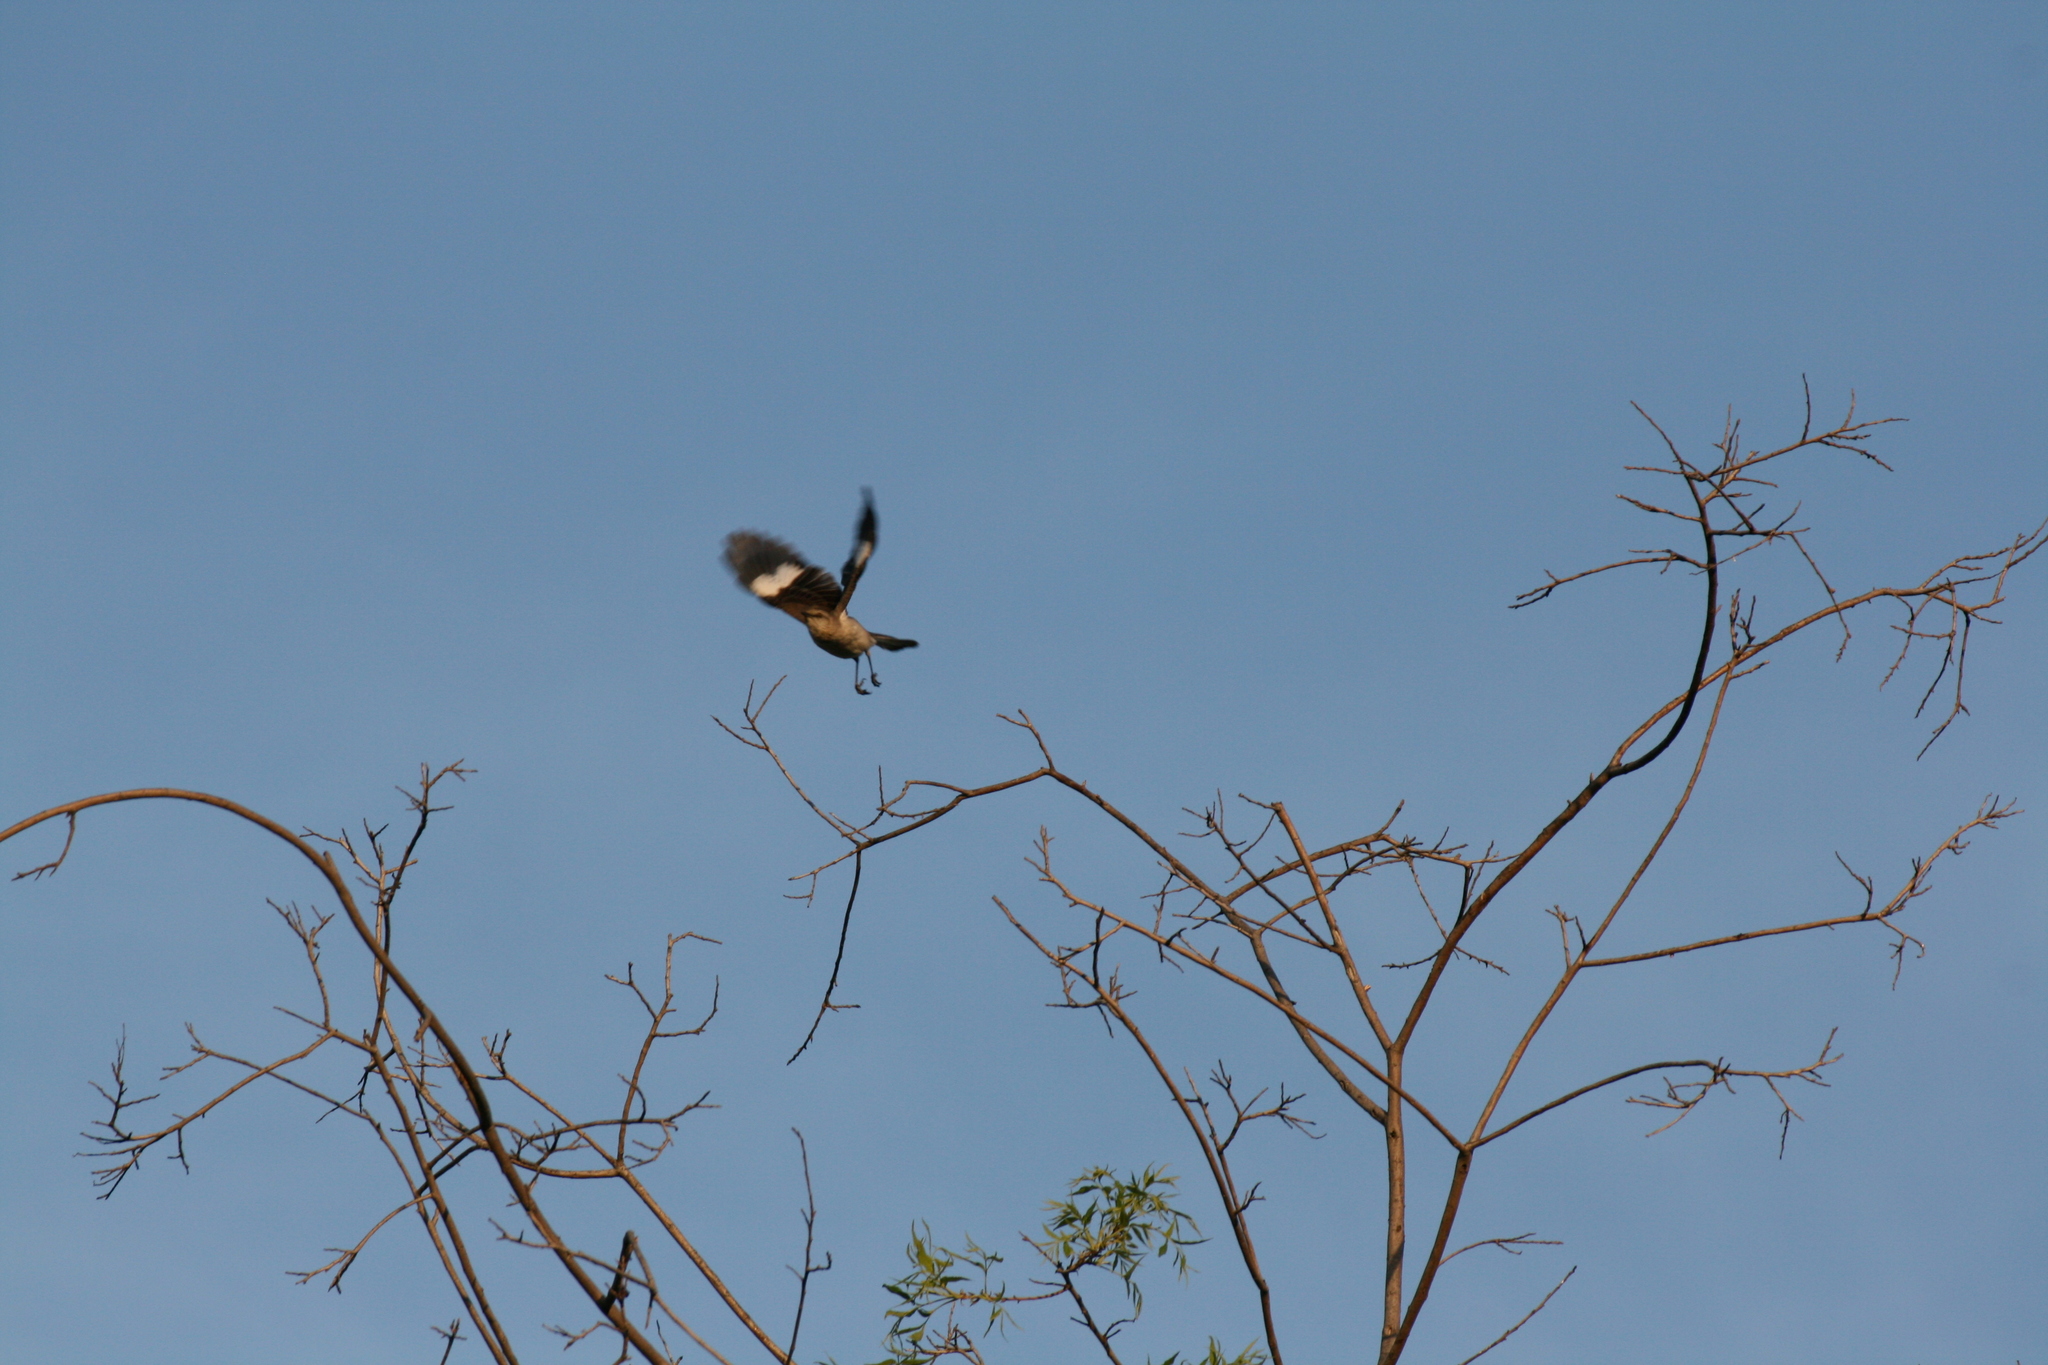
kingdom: Animalia
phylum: Chordata
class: Aves
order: Passeriformes
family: Mimidae
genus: Mimus
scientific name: Mimus polyglottos
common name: Northern mockingbird
